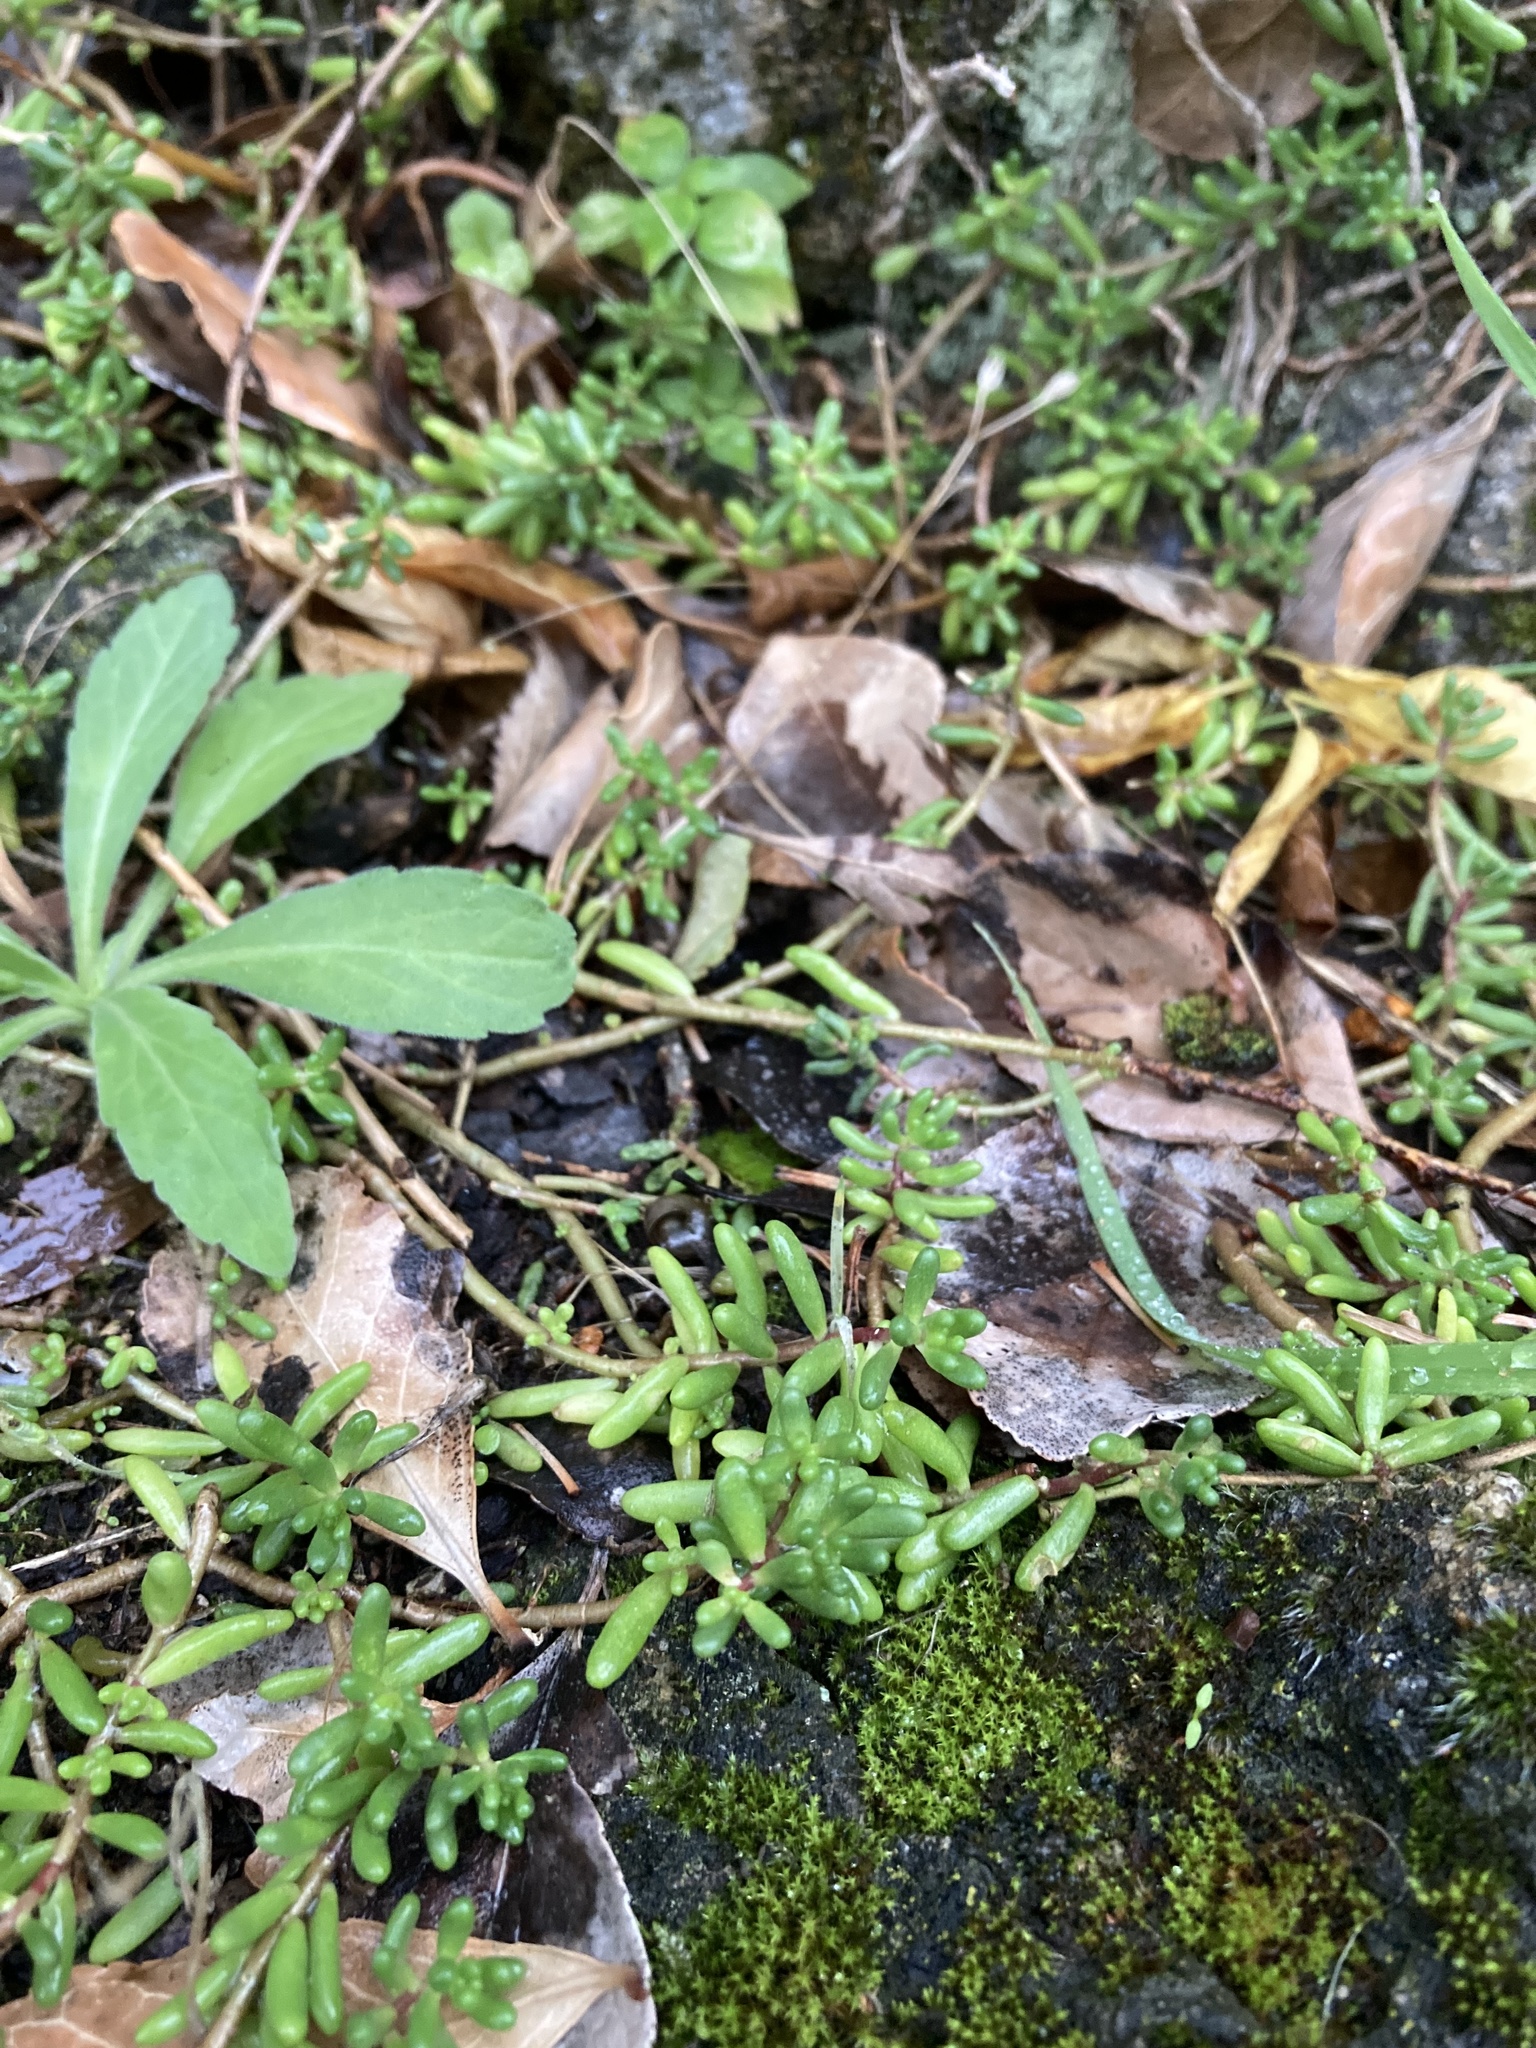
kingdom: Plantae
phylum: Tracheophyta
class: Magnoliopsida
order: Saxifragales
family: Crassulaceae
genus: Sedum
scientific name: Sedum album
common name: White stonecrop
